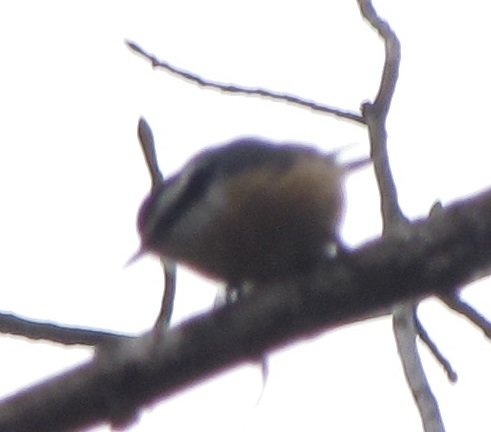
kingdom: Animalia
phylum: Chordata
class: Aves
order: Passeriformes
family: Sittidae
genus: Sitta
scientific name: Sitta canadensis
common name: Red-breasted nuthatch
